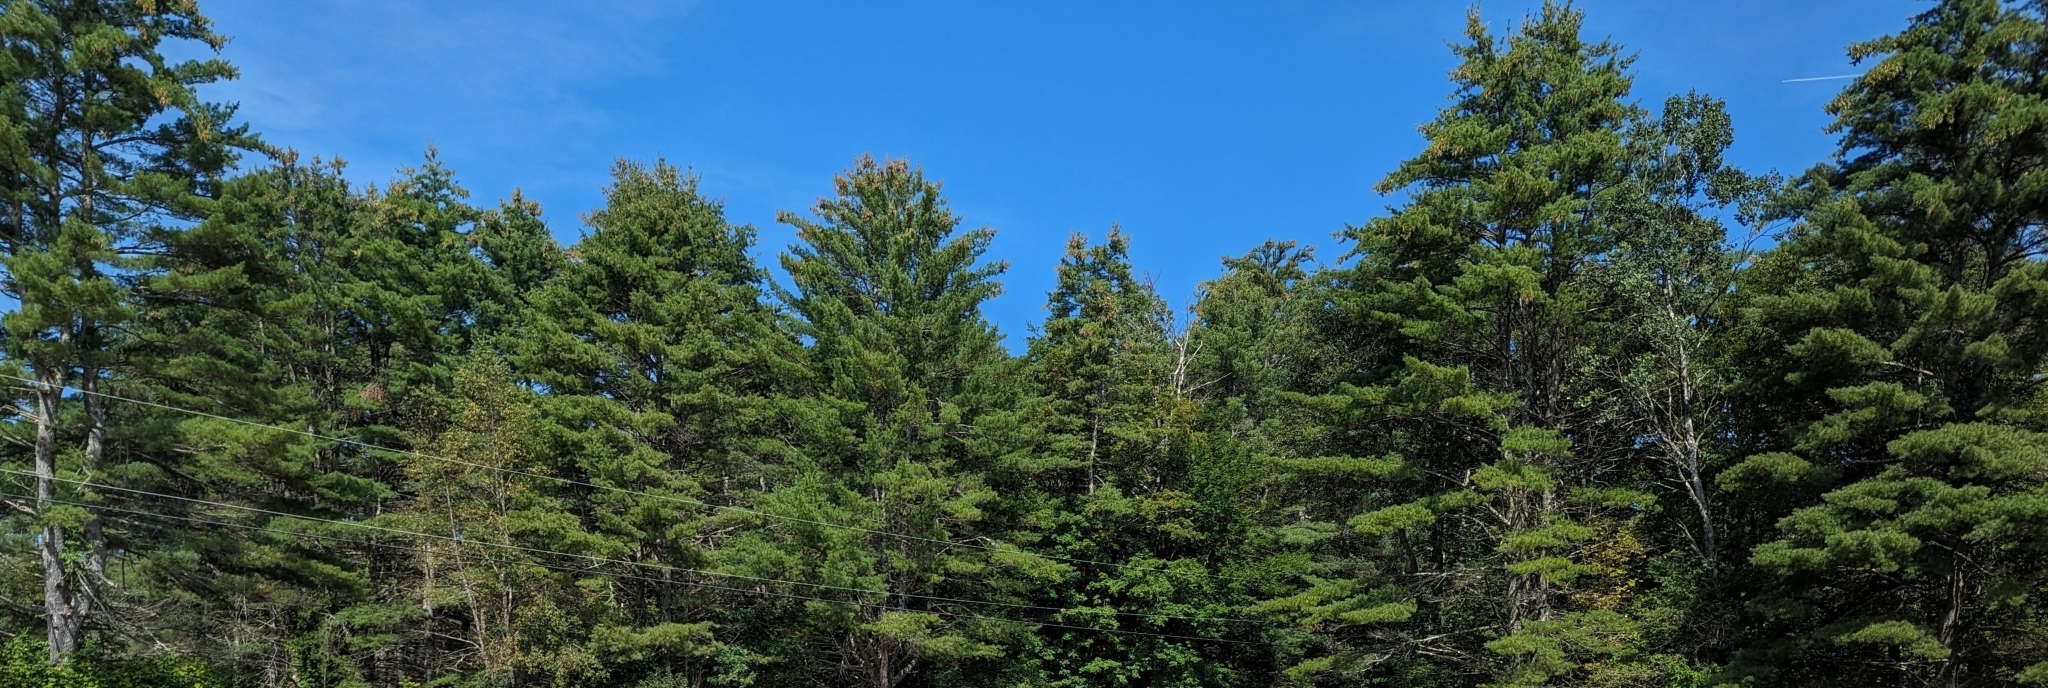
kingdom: Plantae
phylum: Tracheophyta
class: Pinopsida
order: Pinales
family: Pinaceae
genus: Pinus
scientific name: Pinus strobus
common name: Weymouth pine
